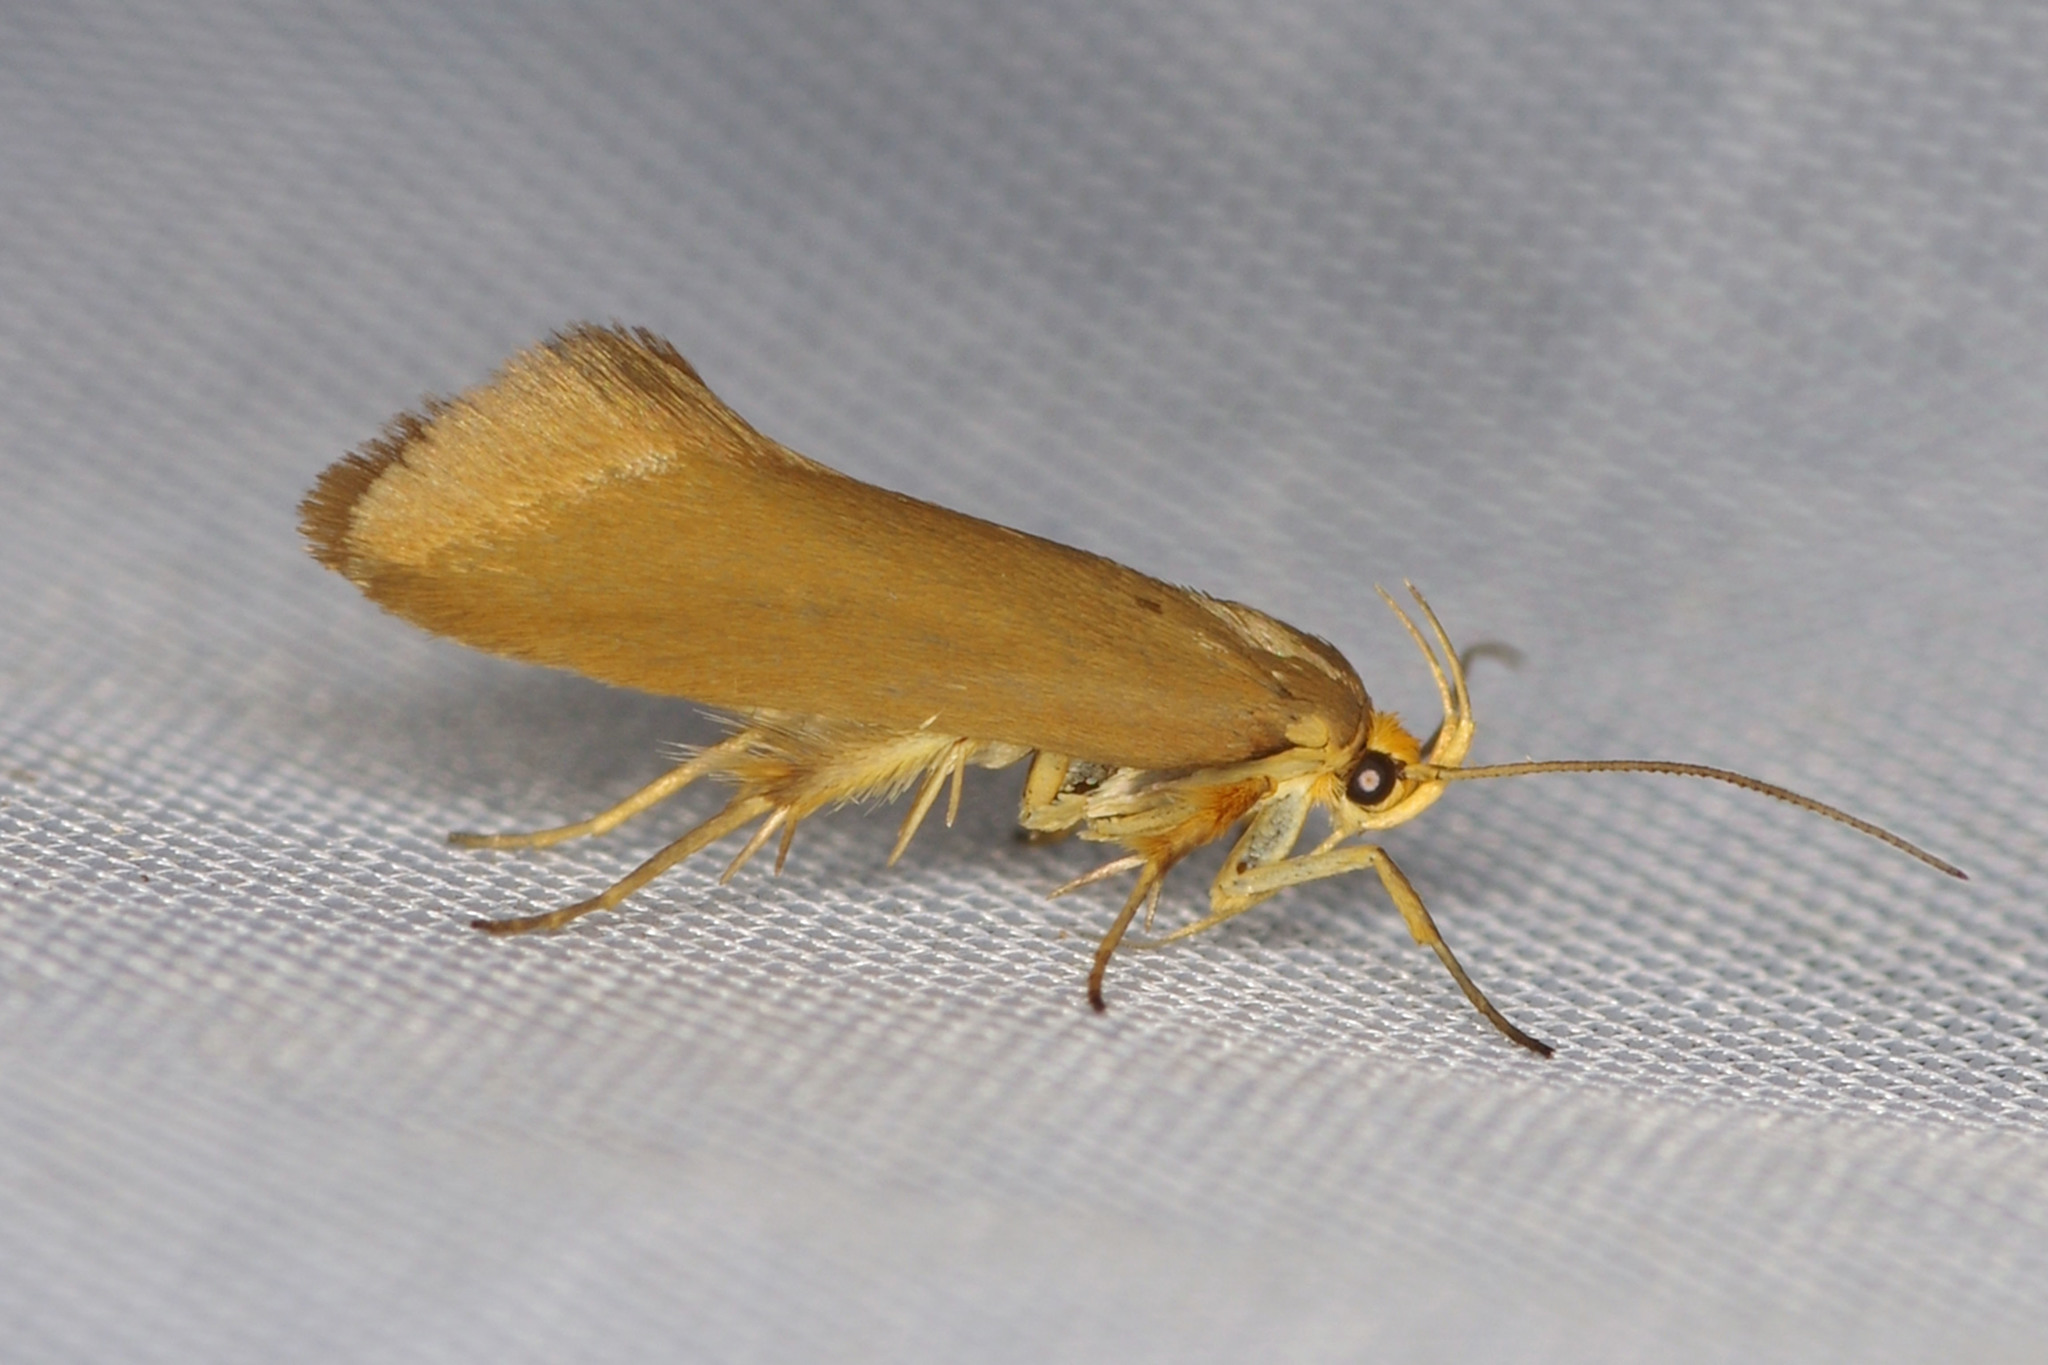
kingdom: Animalia
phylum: Arthropoda
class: Insecta
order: Lepidoptera
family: Oecophoridae
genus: Borkhausenia
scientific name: Borkhausenia Crassa unitella
